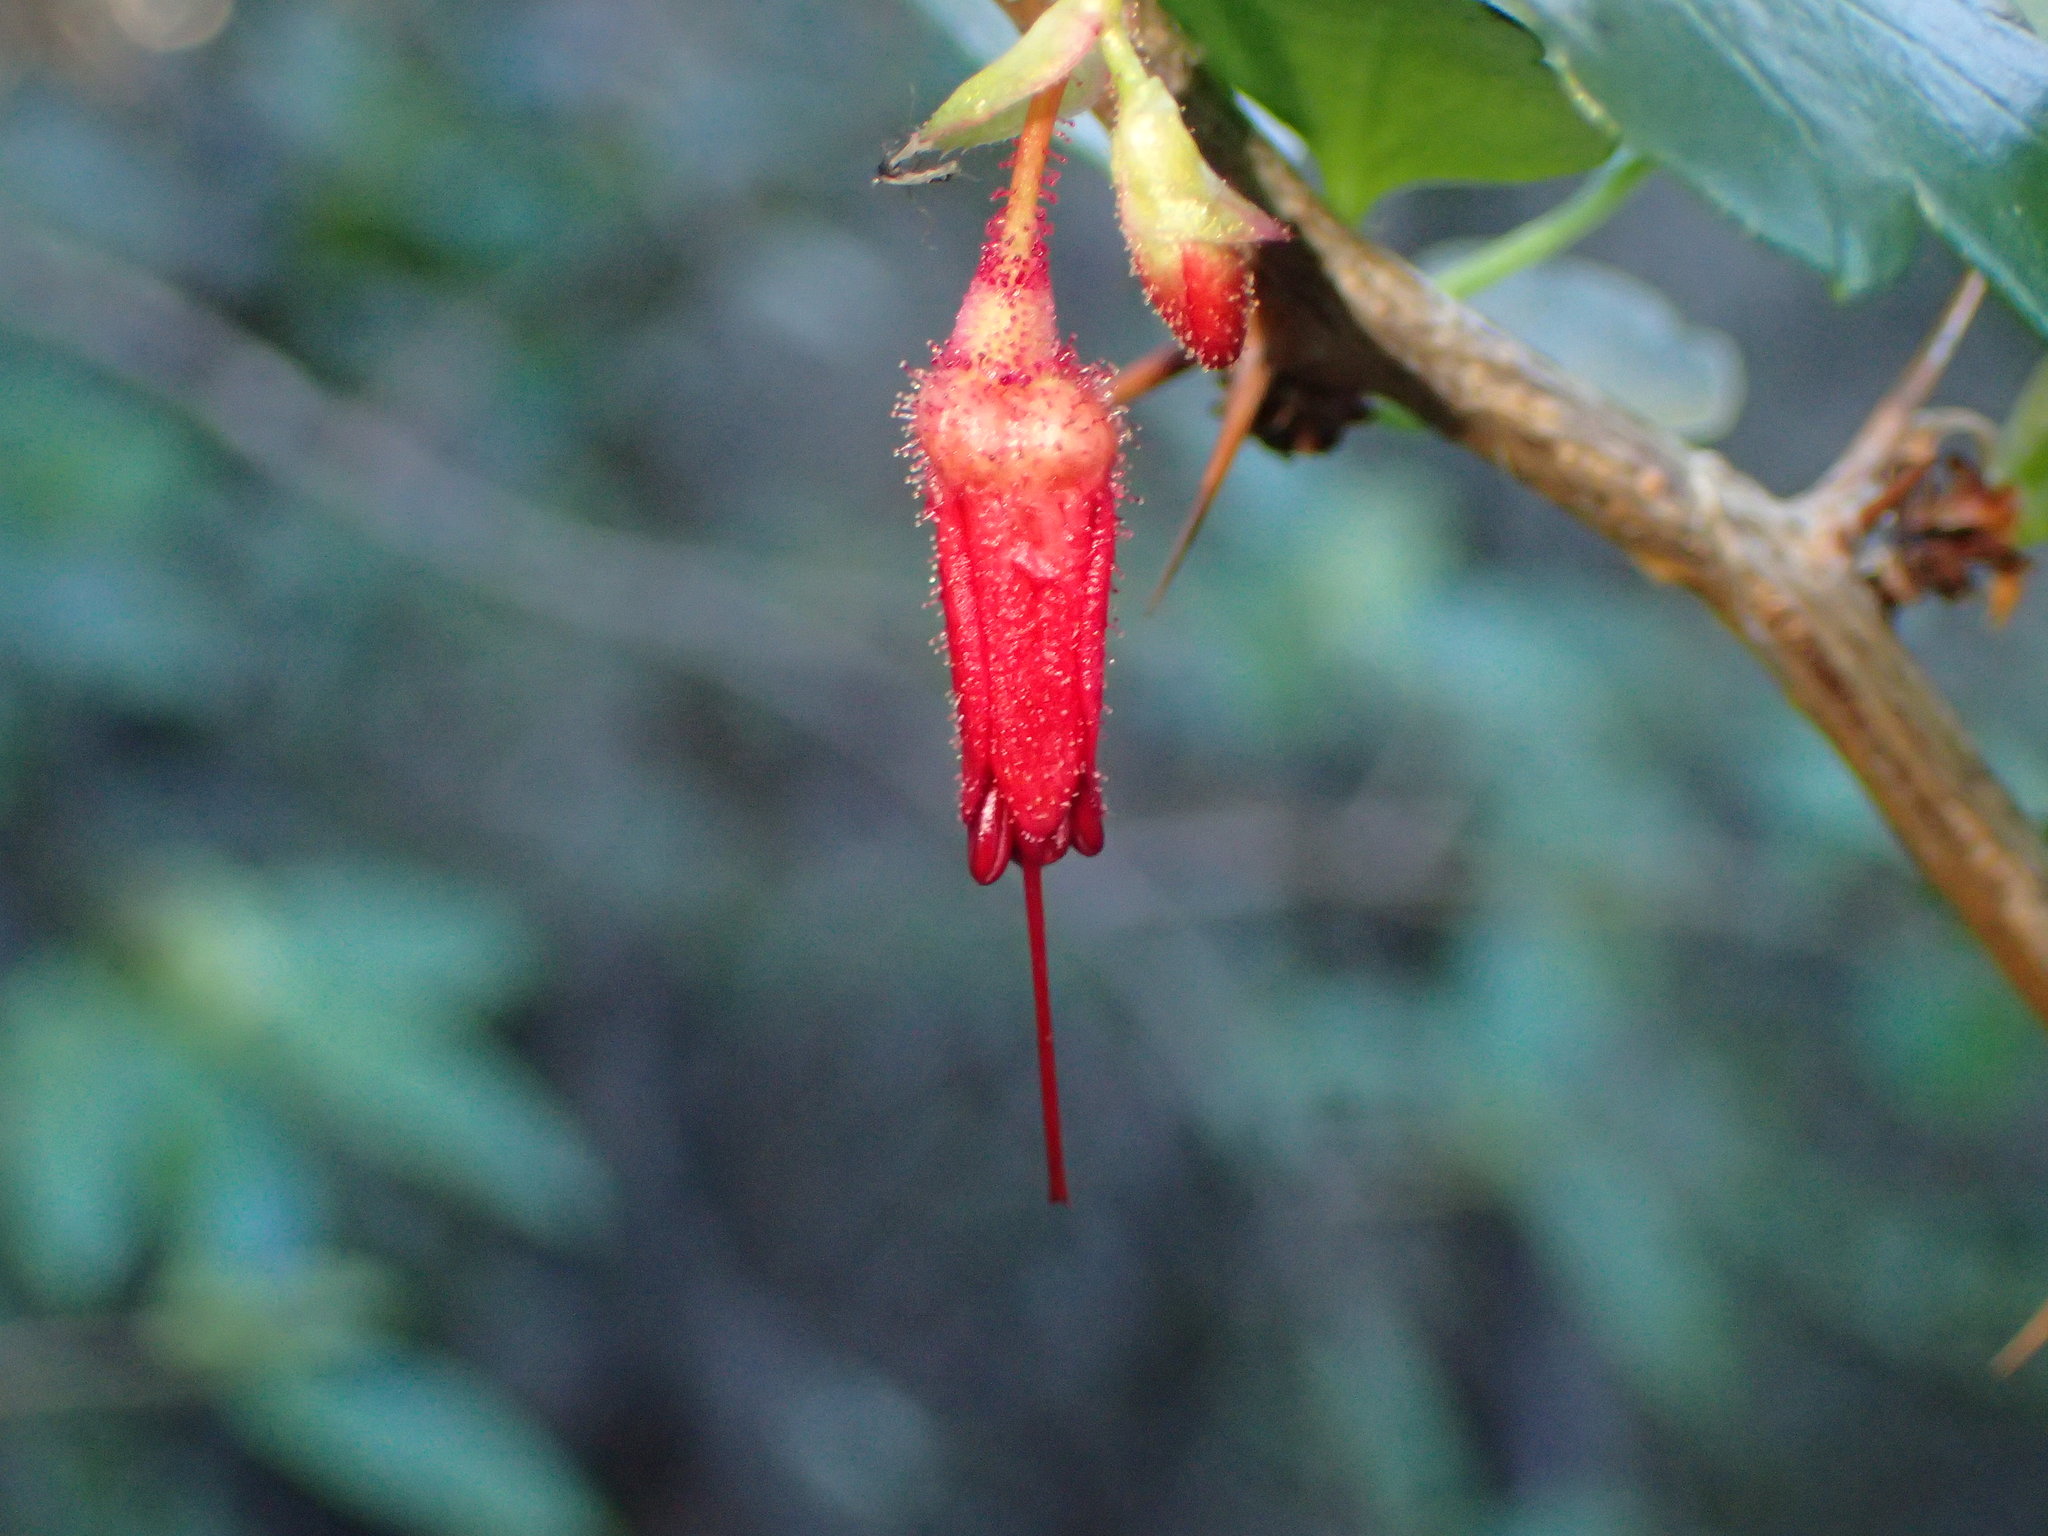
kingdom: Plantae
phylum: Tracheophyta
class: Magnoliopsida
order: Saxifragales
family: Grossulariaceae
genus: Ribes
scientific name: Ribes speciosum
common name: Fuchsia-flower gooseberry
